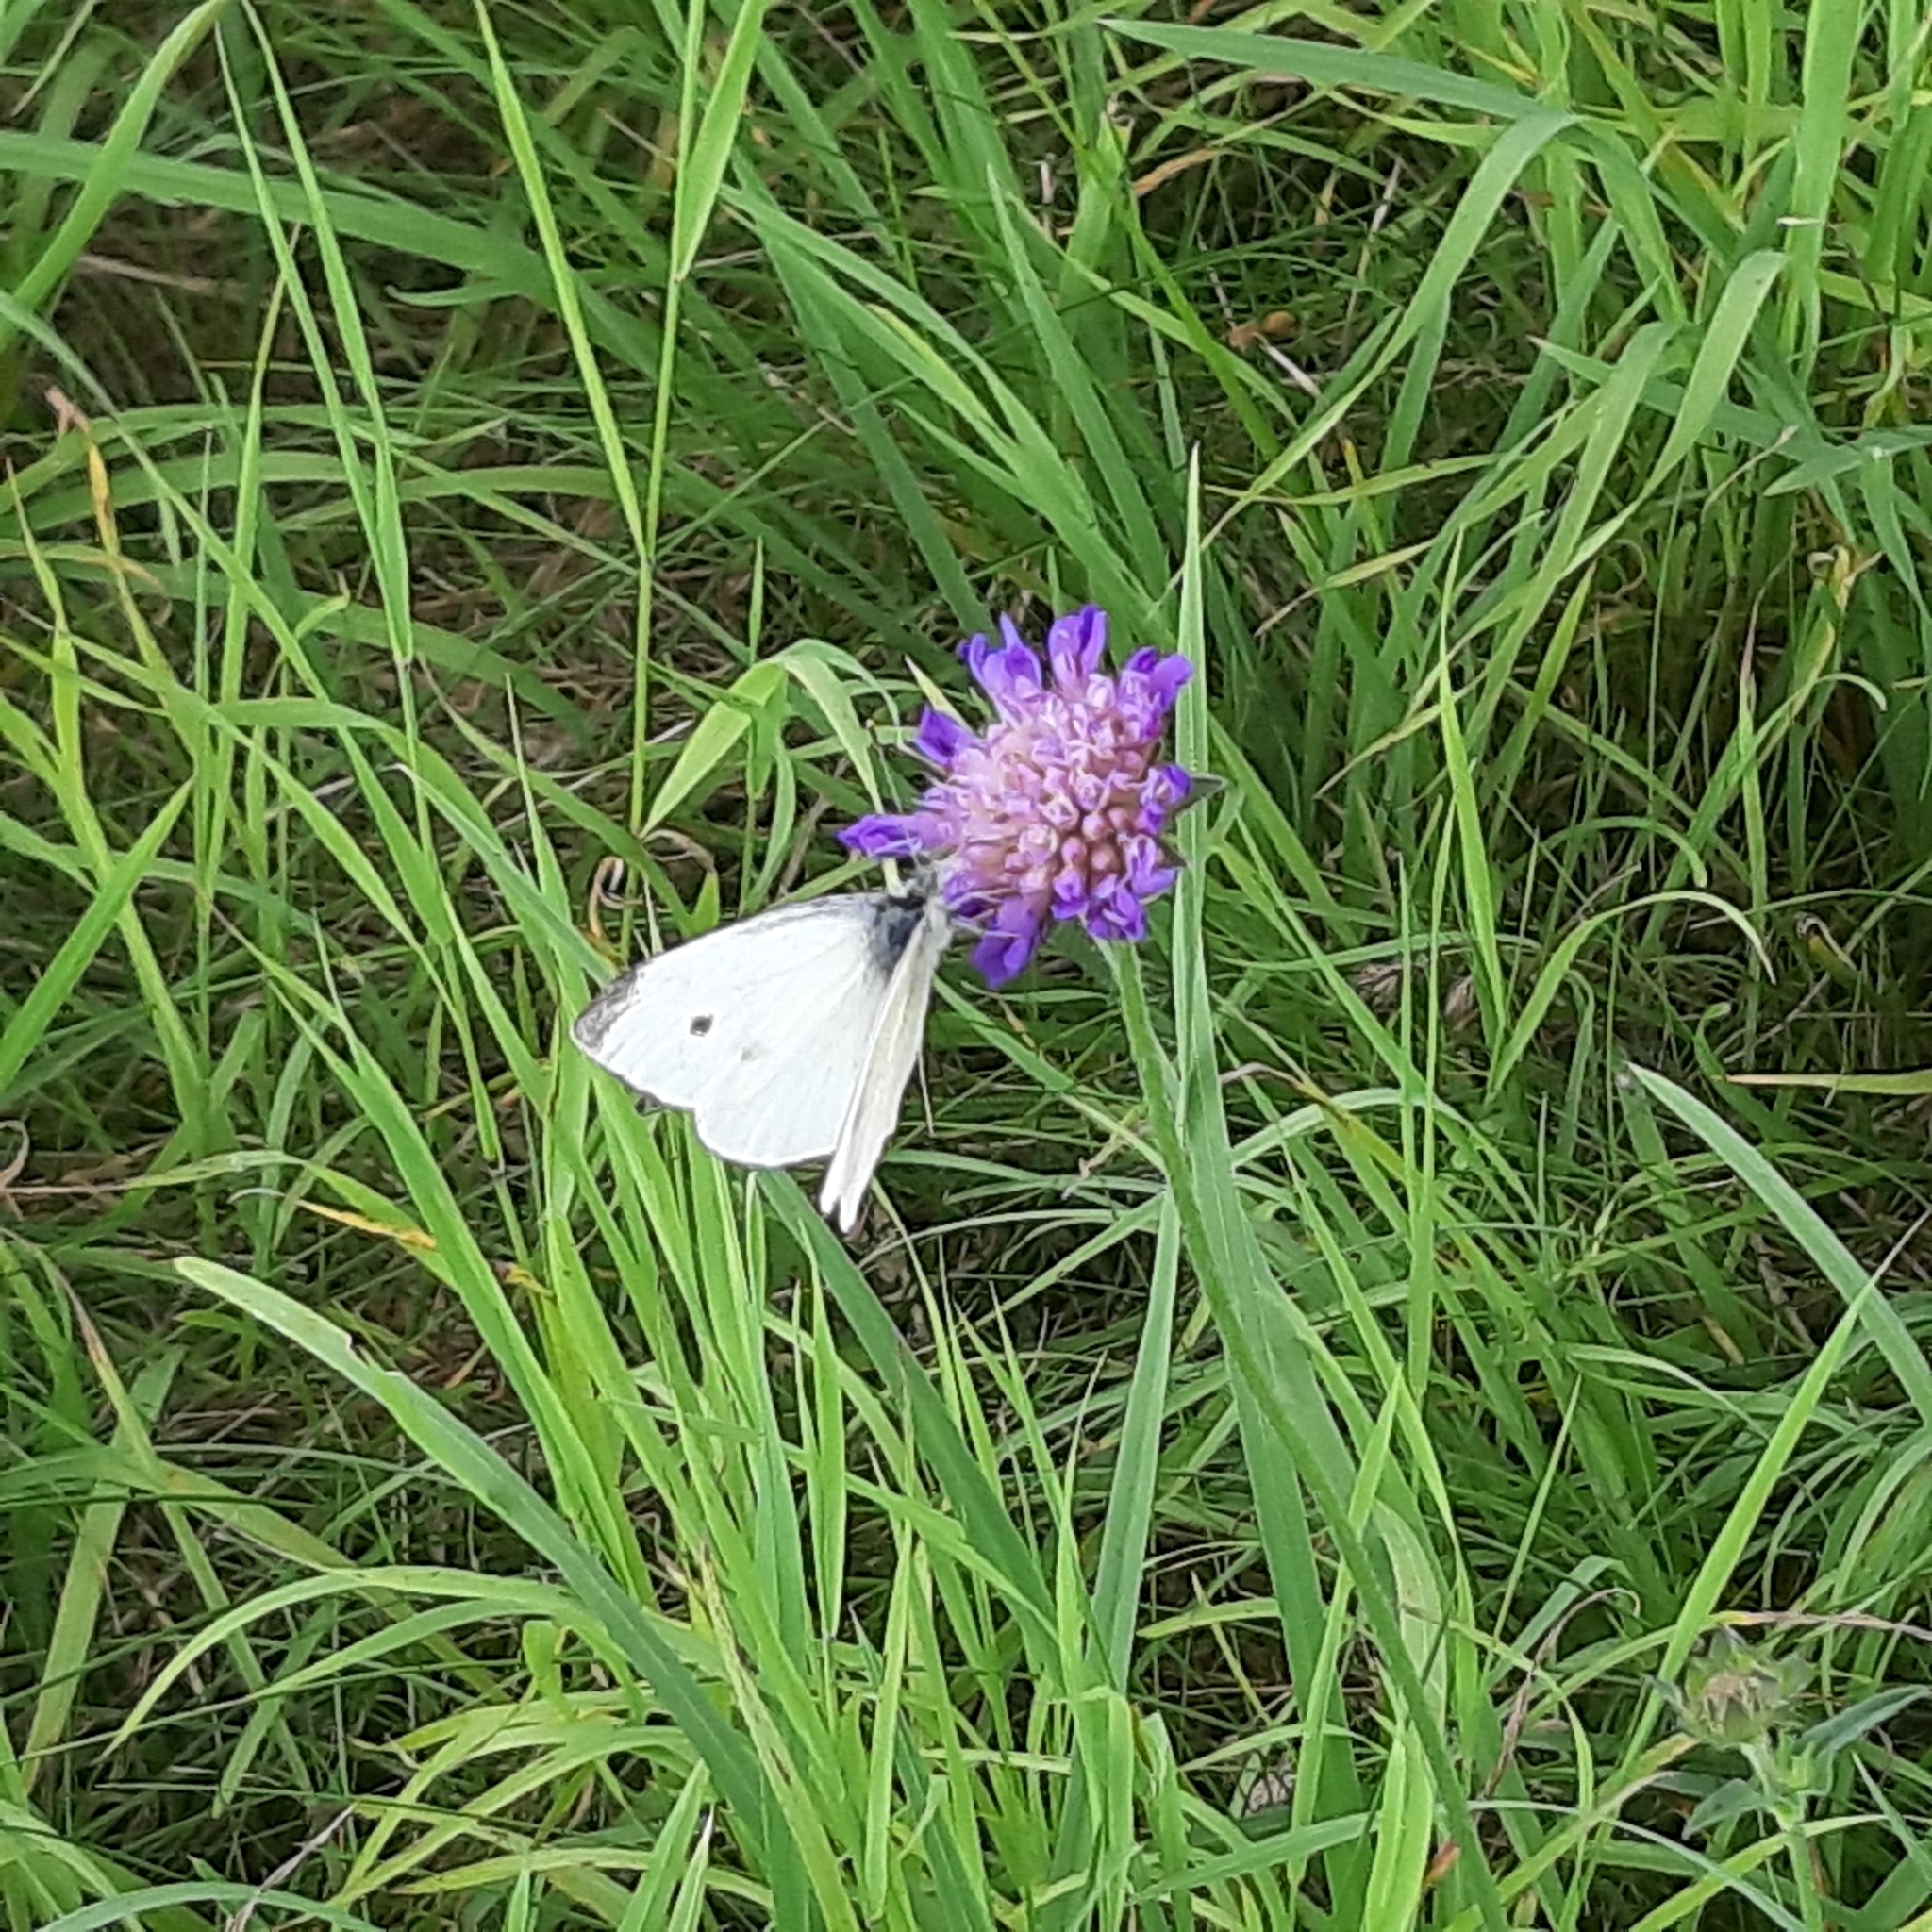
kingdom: Animalia
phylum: Arthropoda
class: Insecta
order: Lepidoptera
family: Pieridae
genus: Pieris
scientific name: Pieris rapae
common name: Small white
